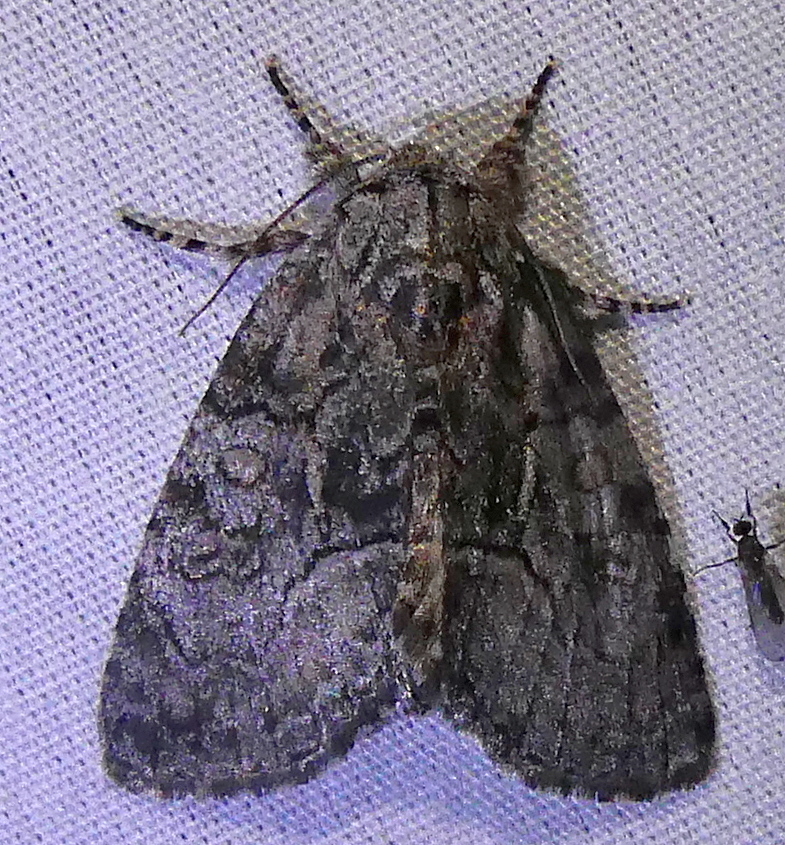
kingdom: Animalia
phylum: Arthropoda
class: Insecta
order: Lepidoptera
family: Noctuidae
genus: Raphia
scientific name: Raphia frater
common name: Brother
